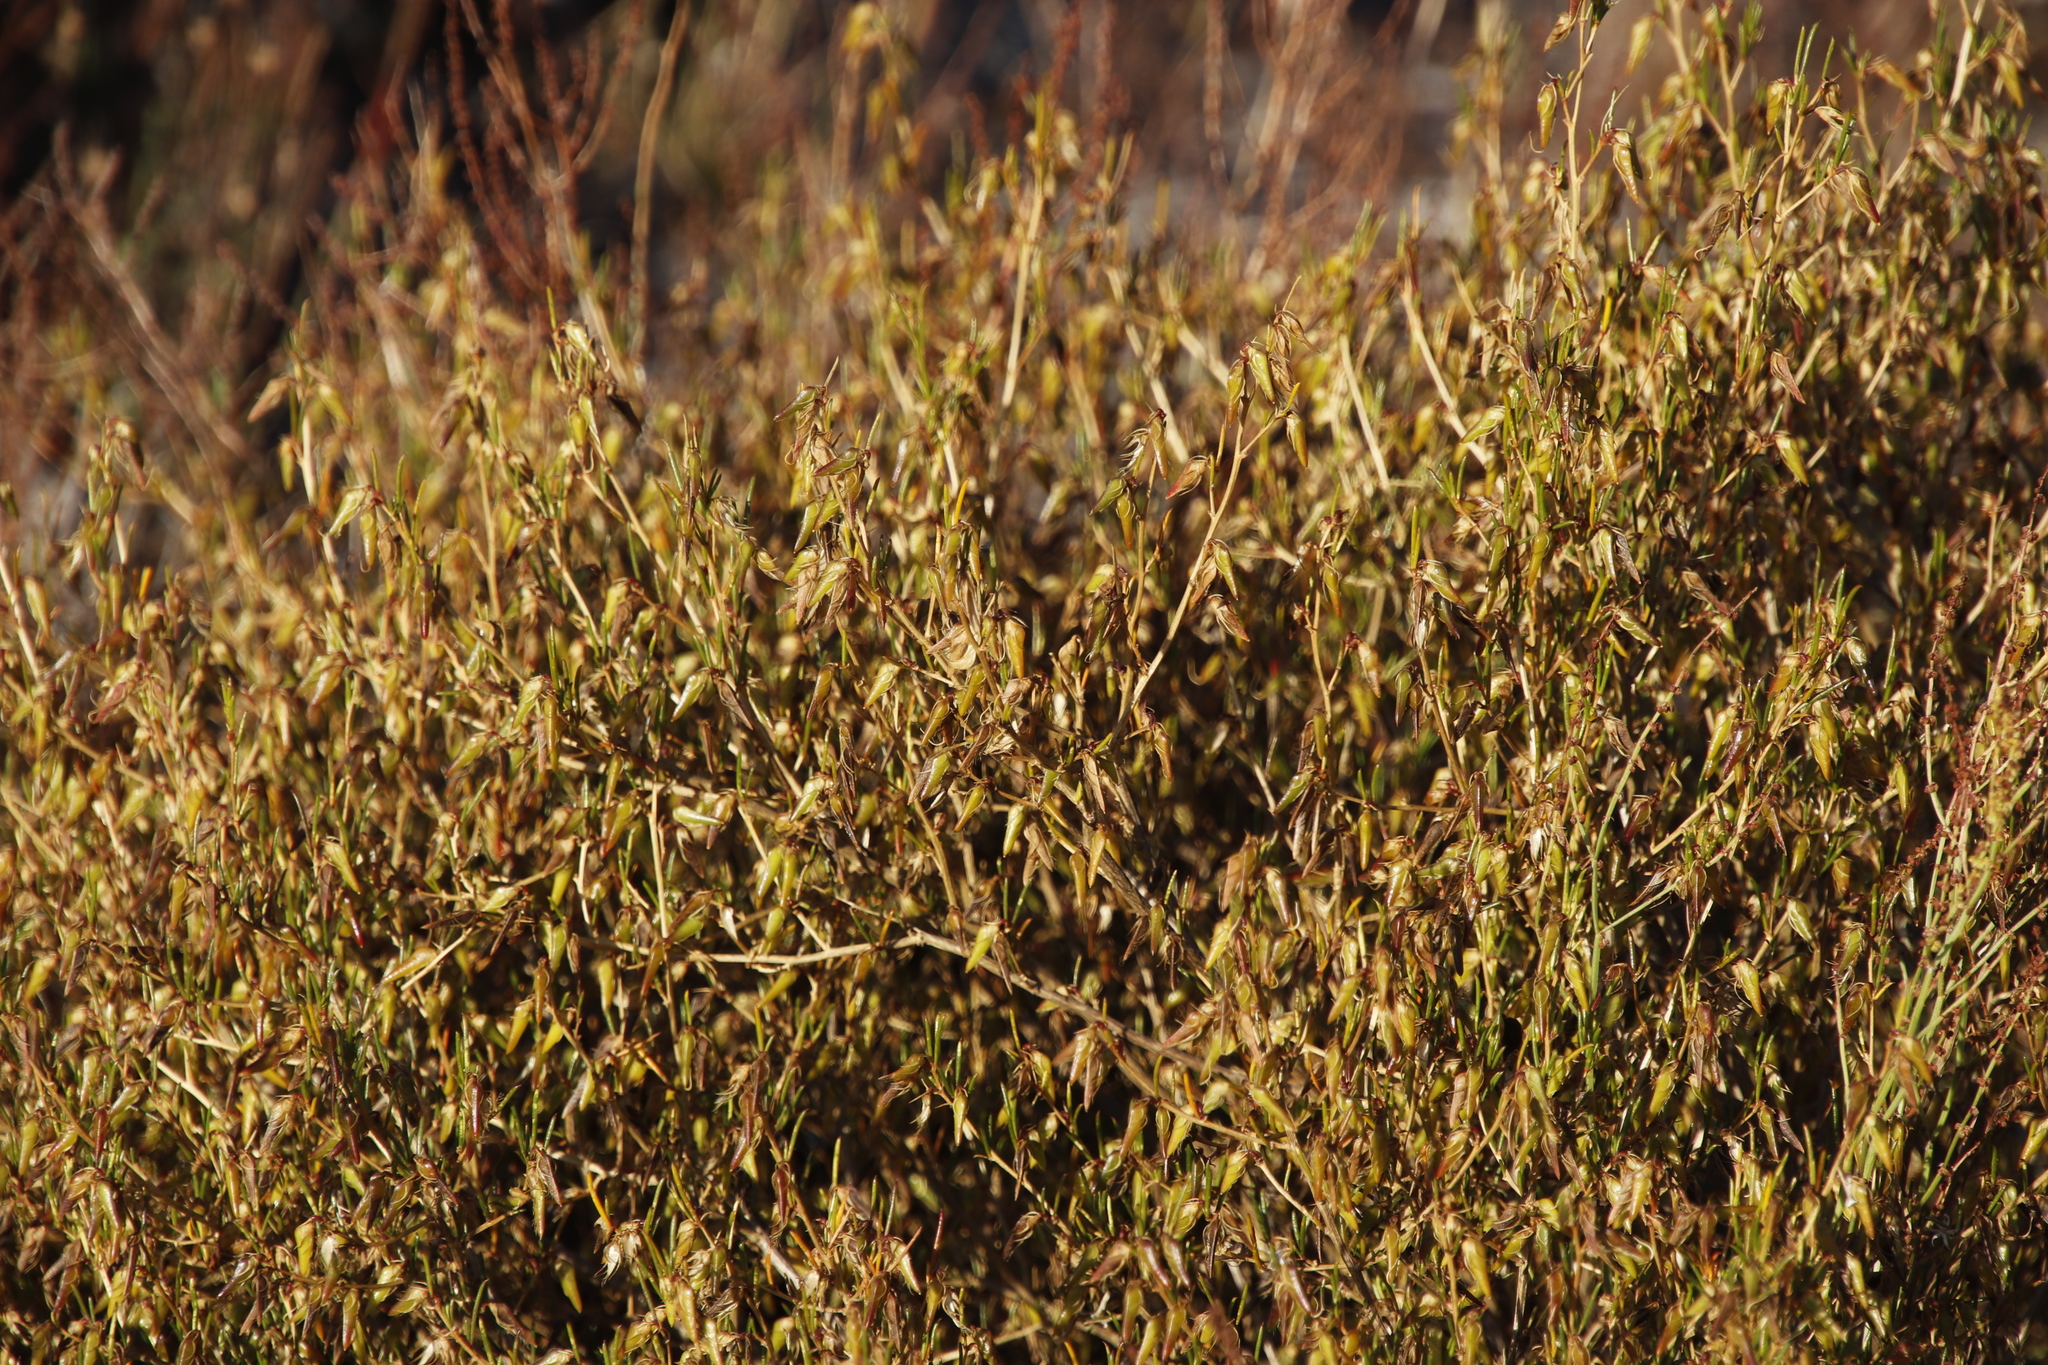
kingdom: Plantae
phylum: Tracheophyta
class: Magnoliopsida
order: Fabales
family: Fabaceae
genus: Aspalathus
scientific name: Aspalathus abietina
